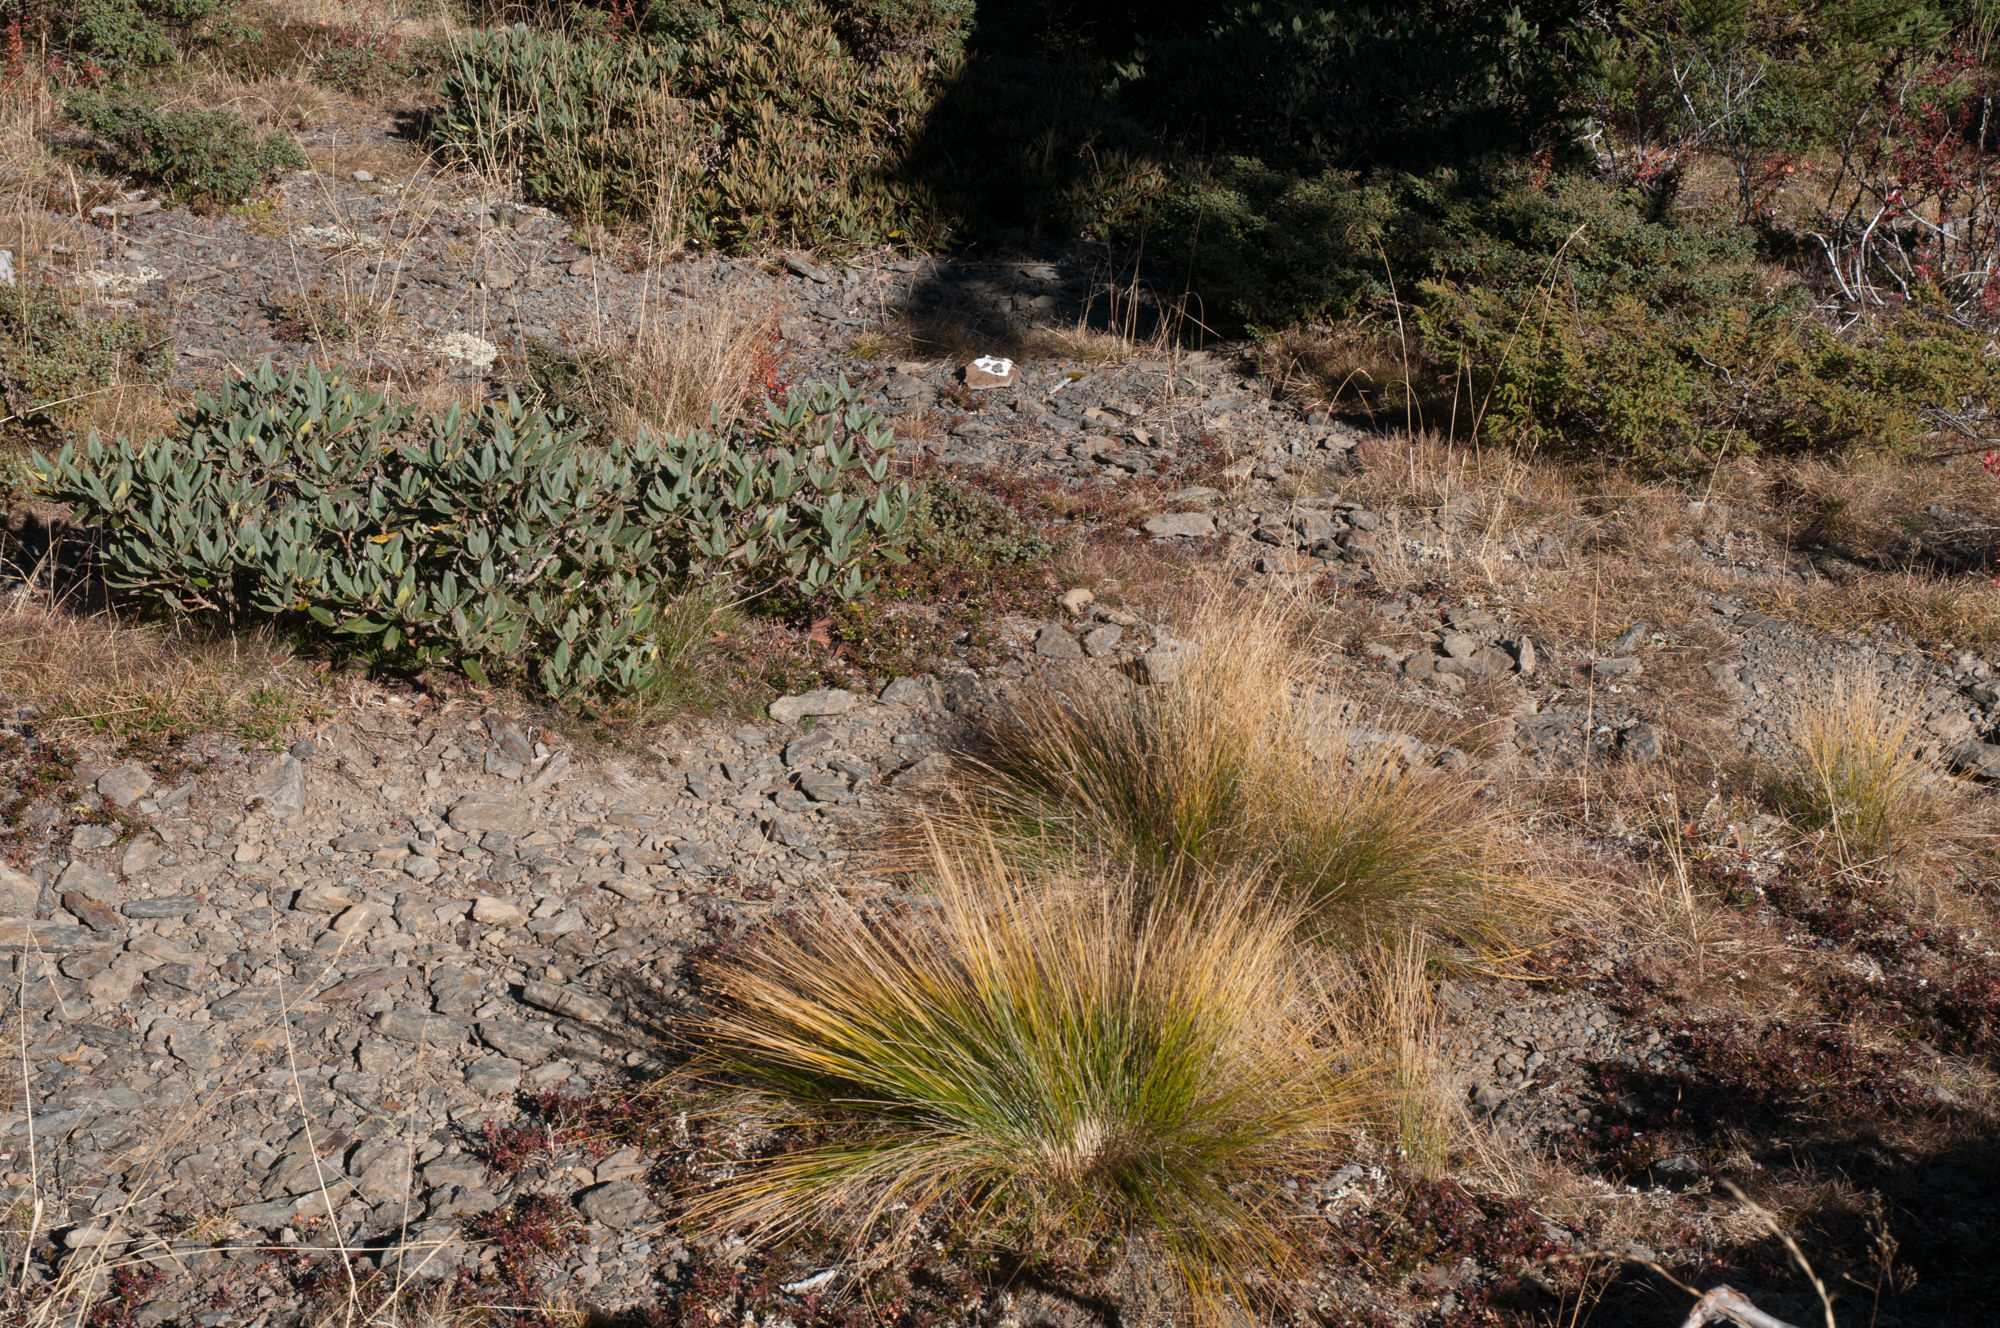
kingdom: Plantae
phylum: Tracheophyta
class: Liliopsida
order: Poales
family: Cyperaceae
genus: Trichophorum
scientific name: Trichophorum subcapitatum
